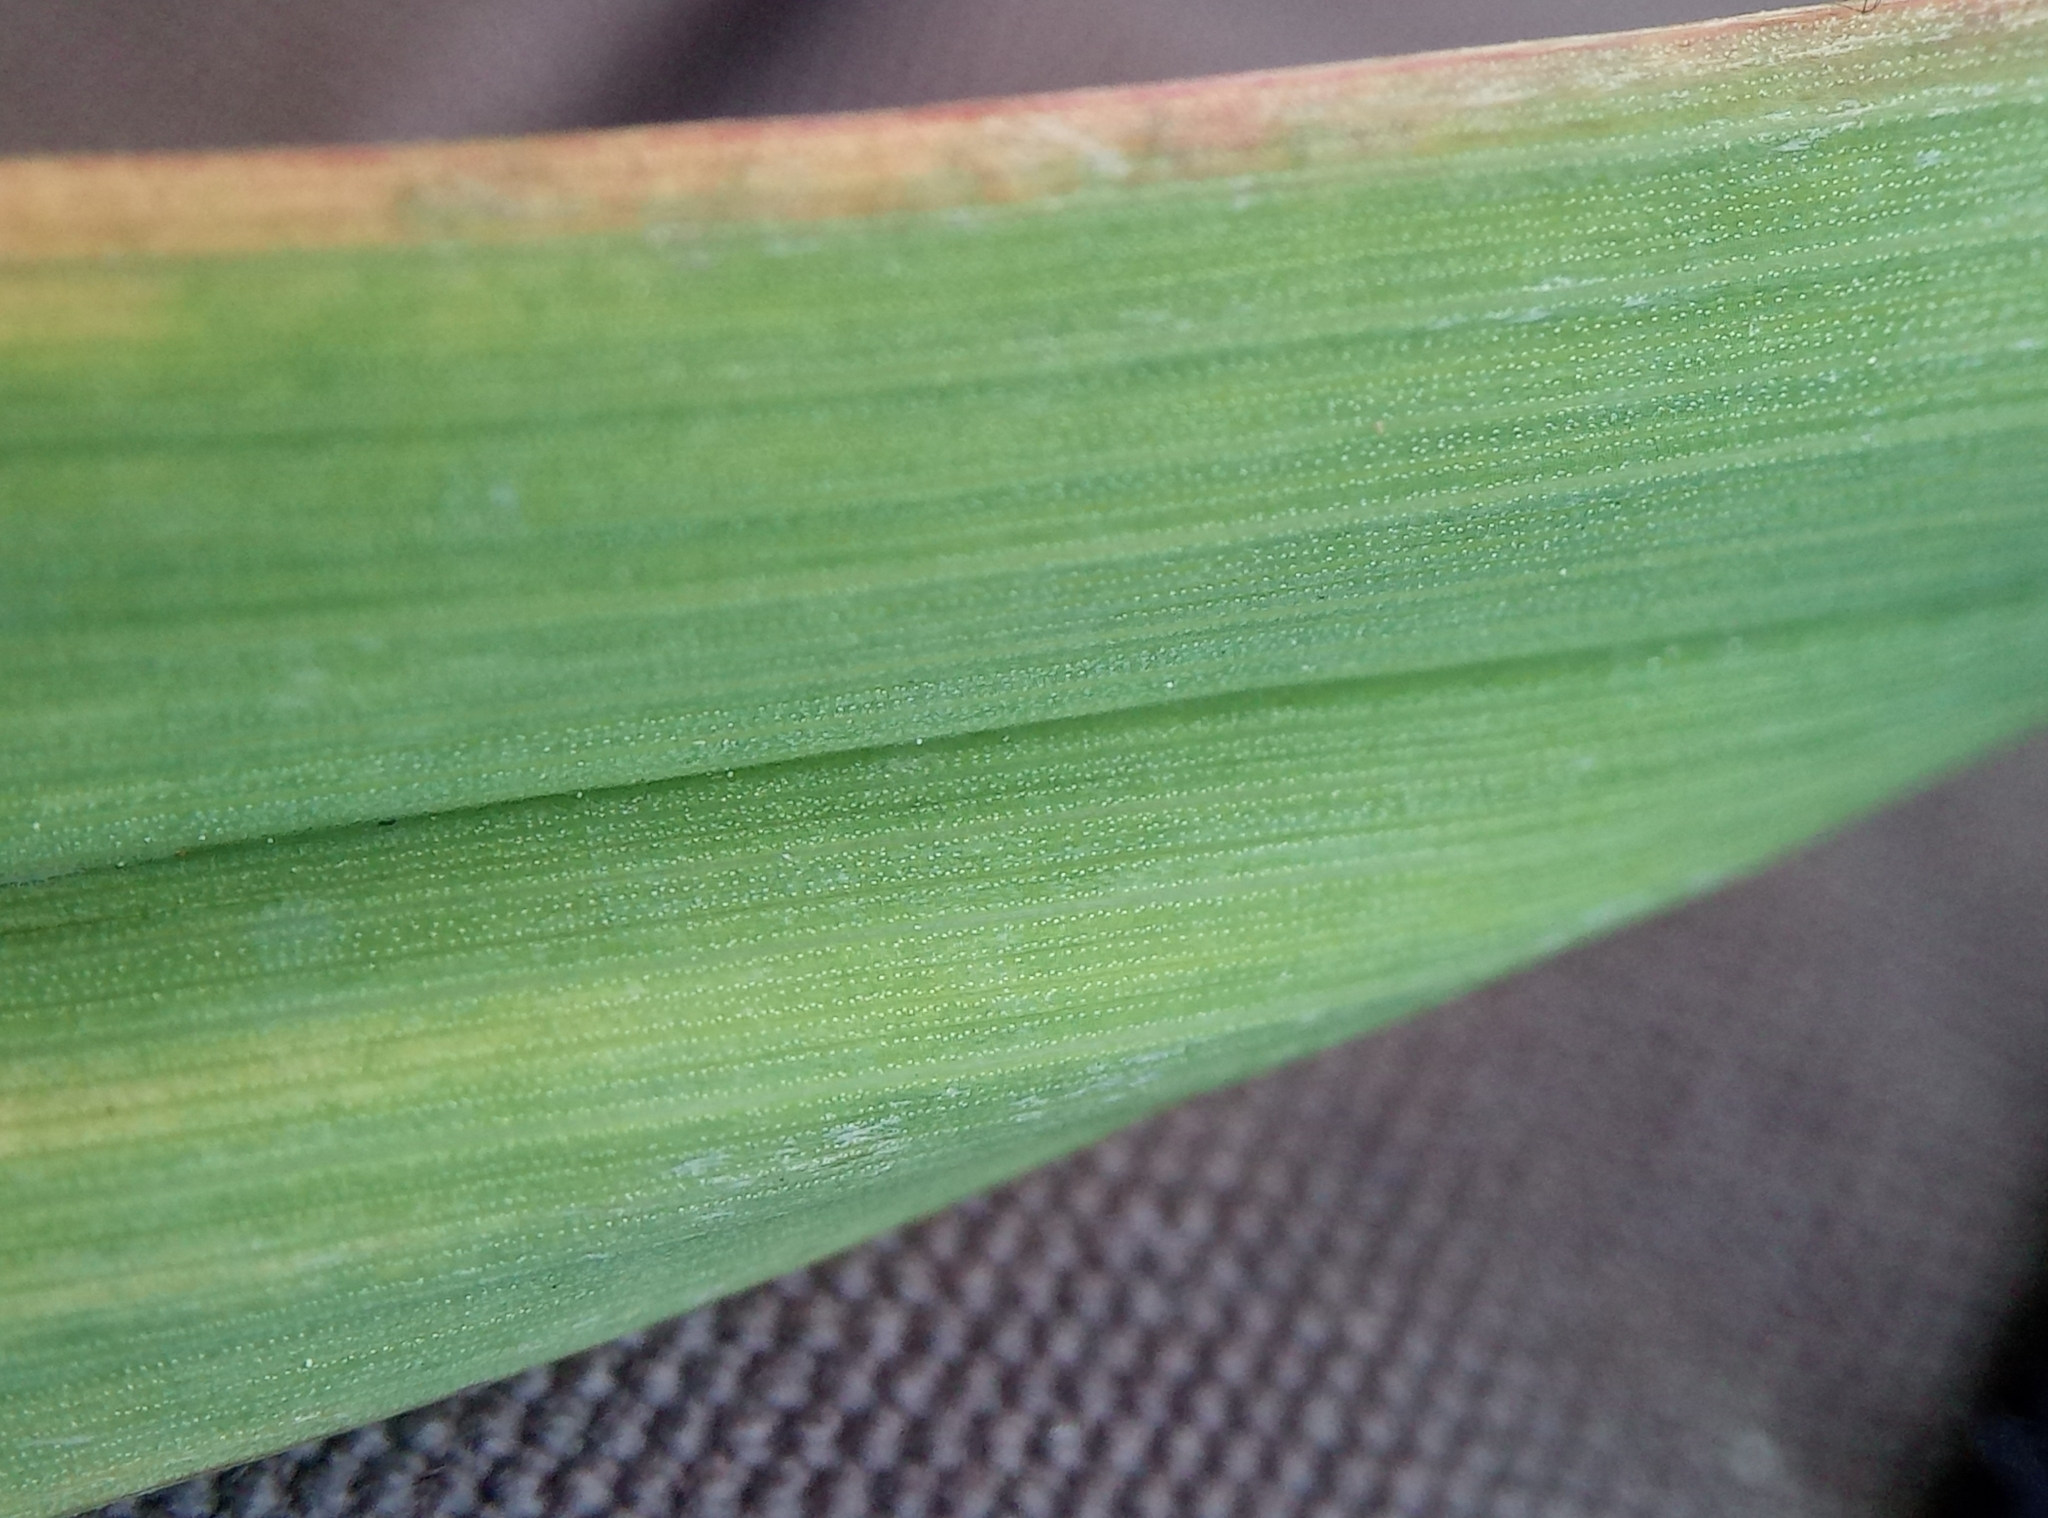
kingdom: Plantae
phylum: Tracheophyta
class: Liliopsida
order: Poales
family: Poaceae
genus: Dactylis
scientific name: Dactylis glomerata
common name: Orchardgrass
